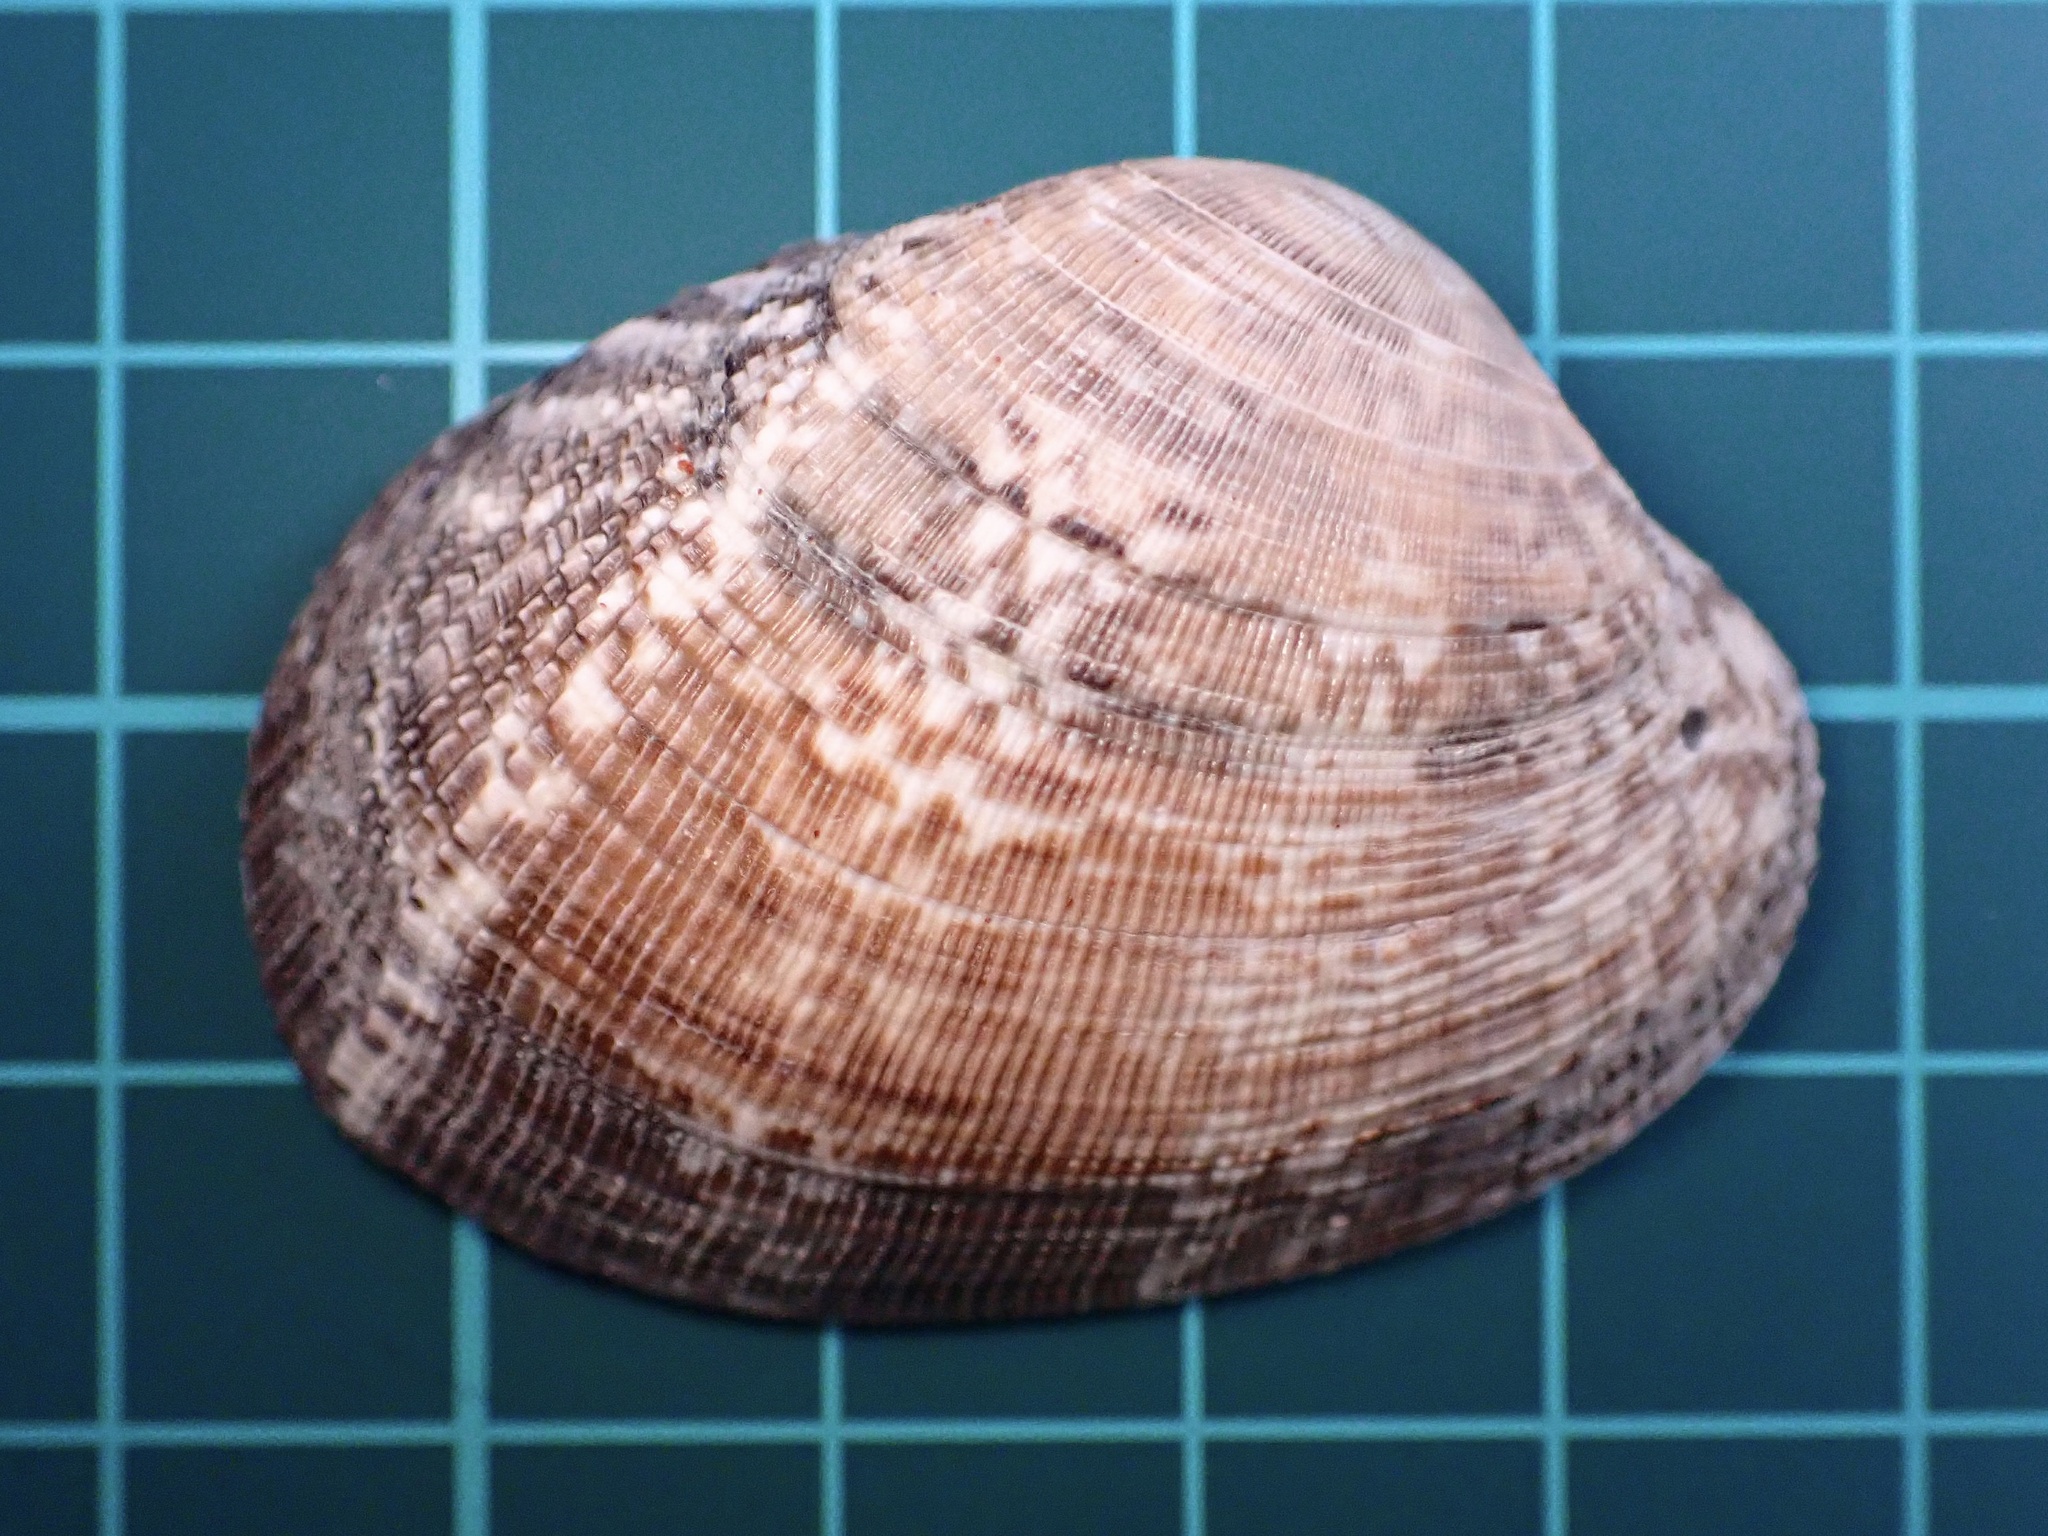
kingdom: Animalia
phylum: Mollusca
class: Bivalvia
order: Venerida
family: Veneridae
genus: Ruditapes
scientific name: Ruditapes philippinarum
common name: Manila clam
